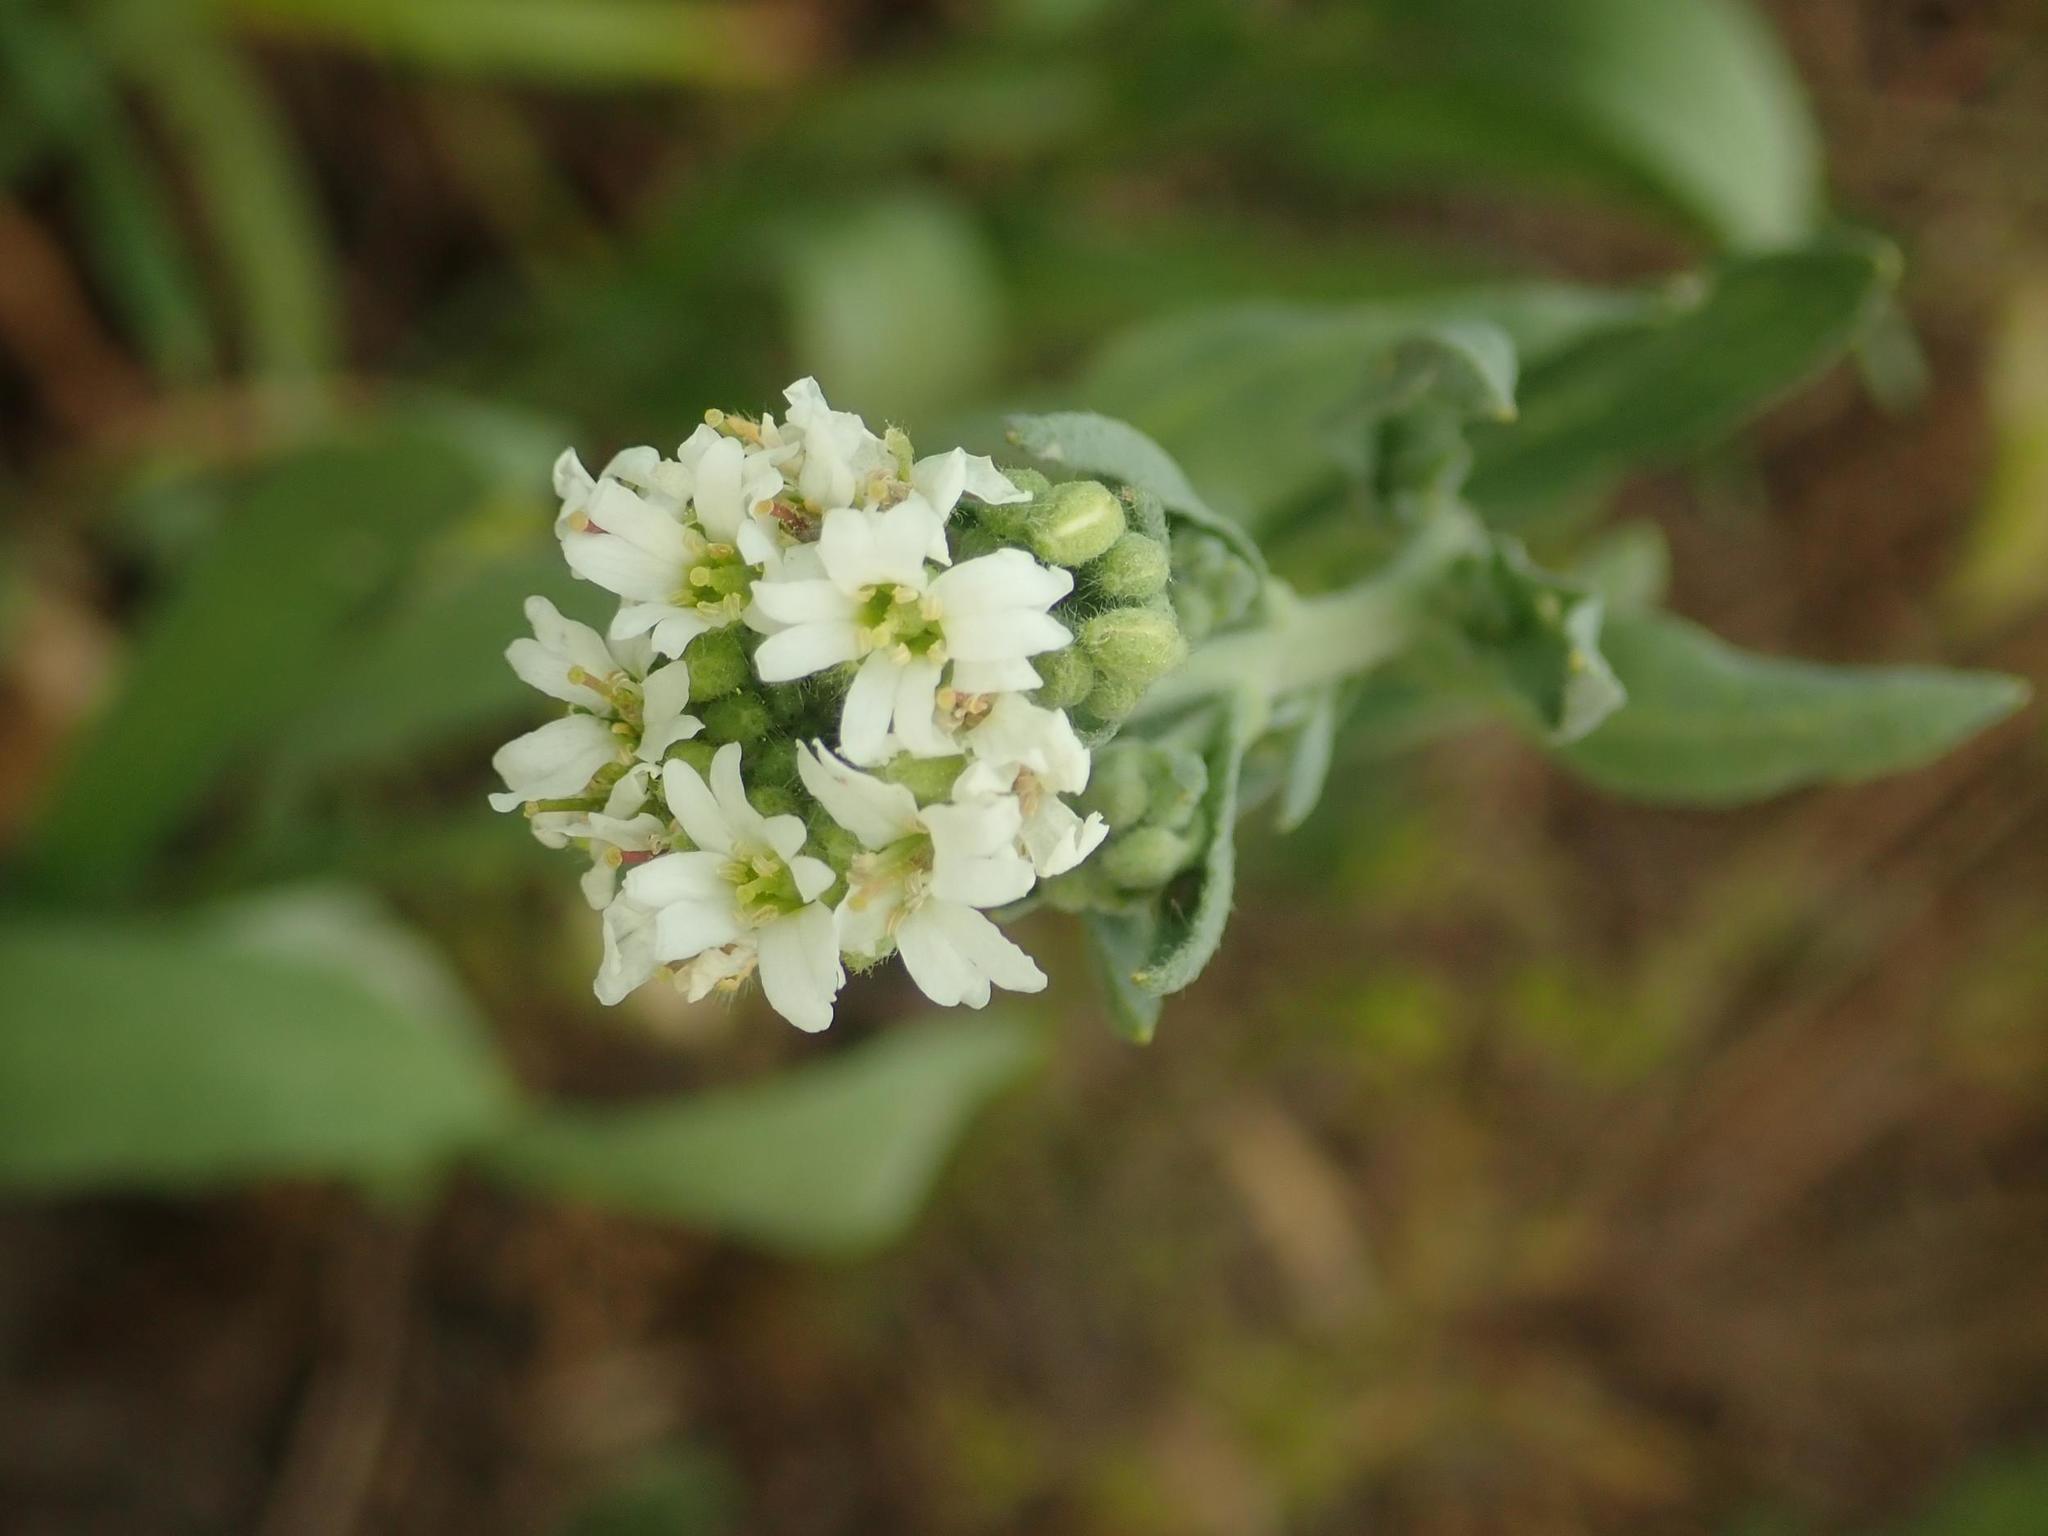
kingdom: Plantae
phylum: Tracheophyta
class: Magnoliopsida
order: Brassicales
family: Brassicaceae
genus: Berteroa
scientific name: Berteroa incana
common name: Hoary alison
